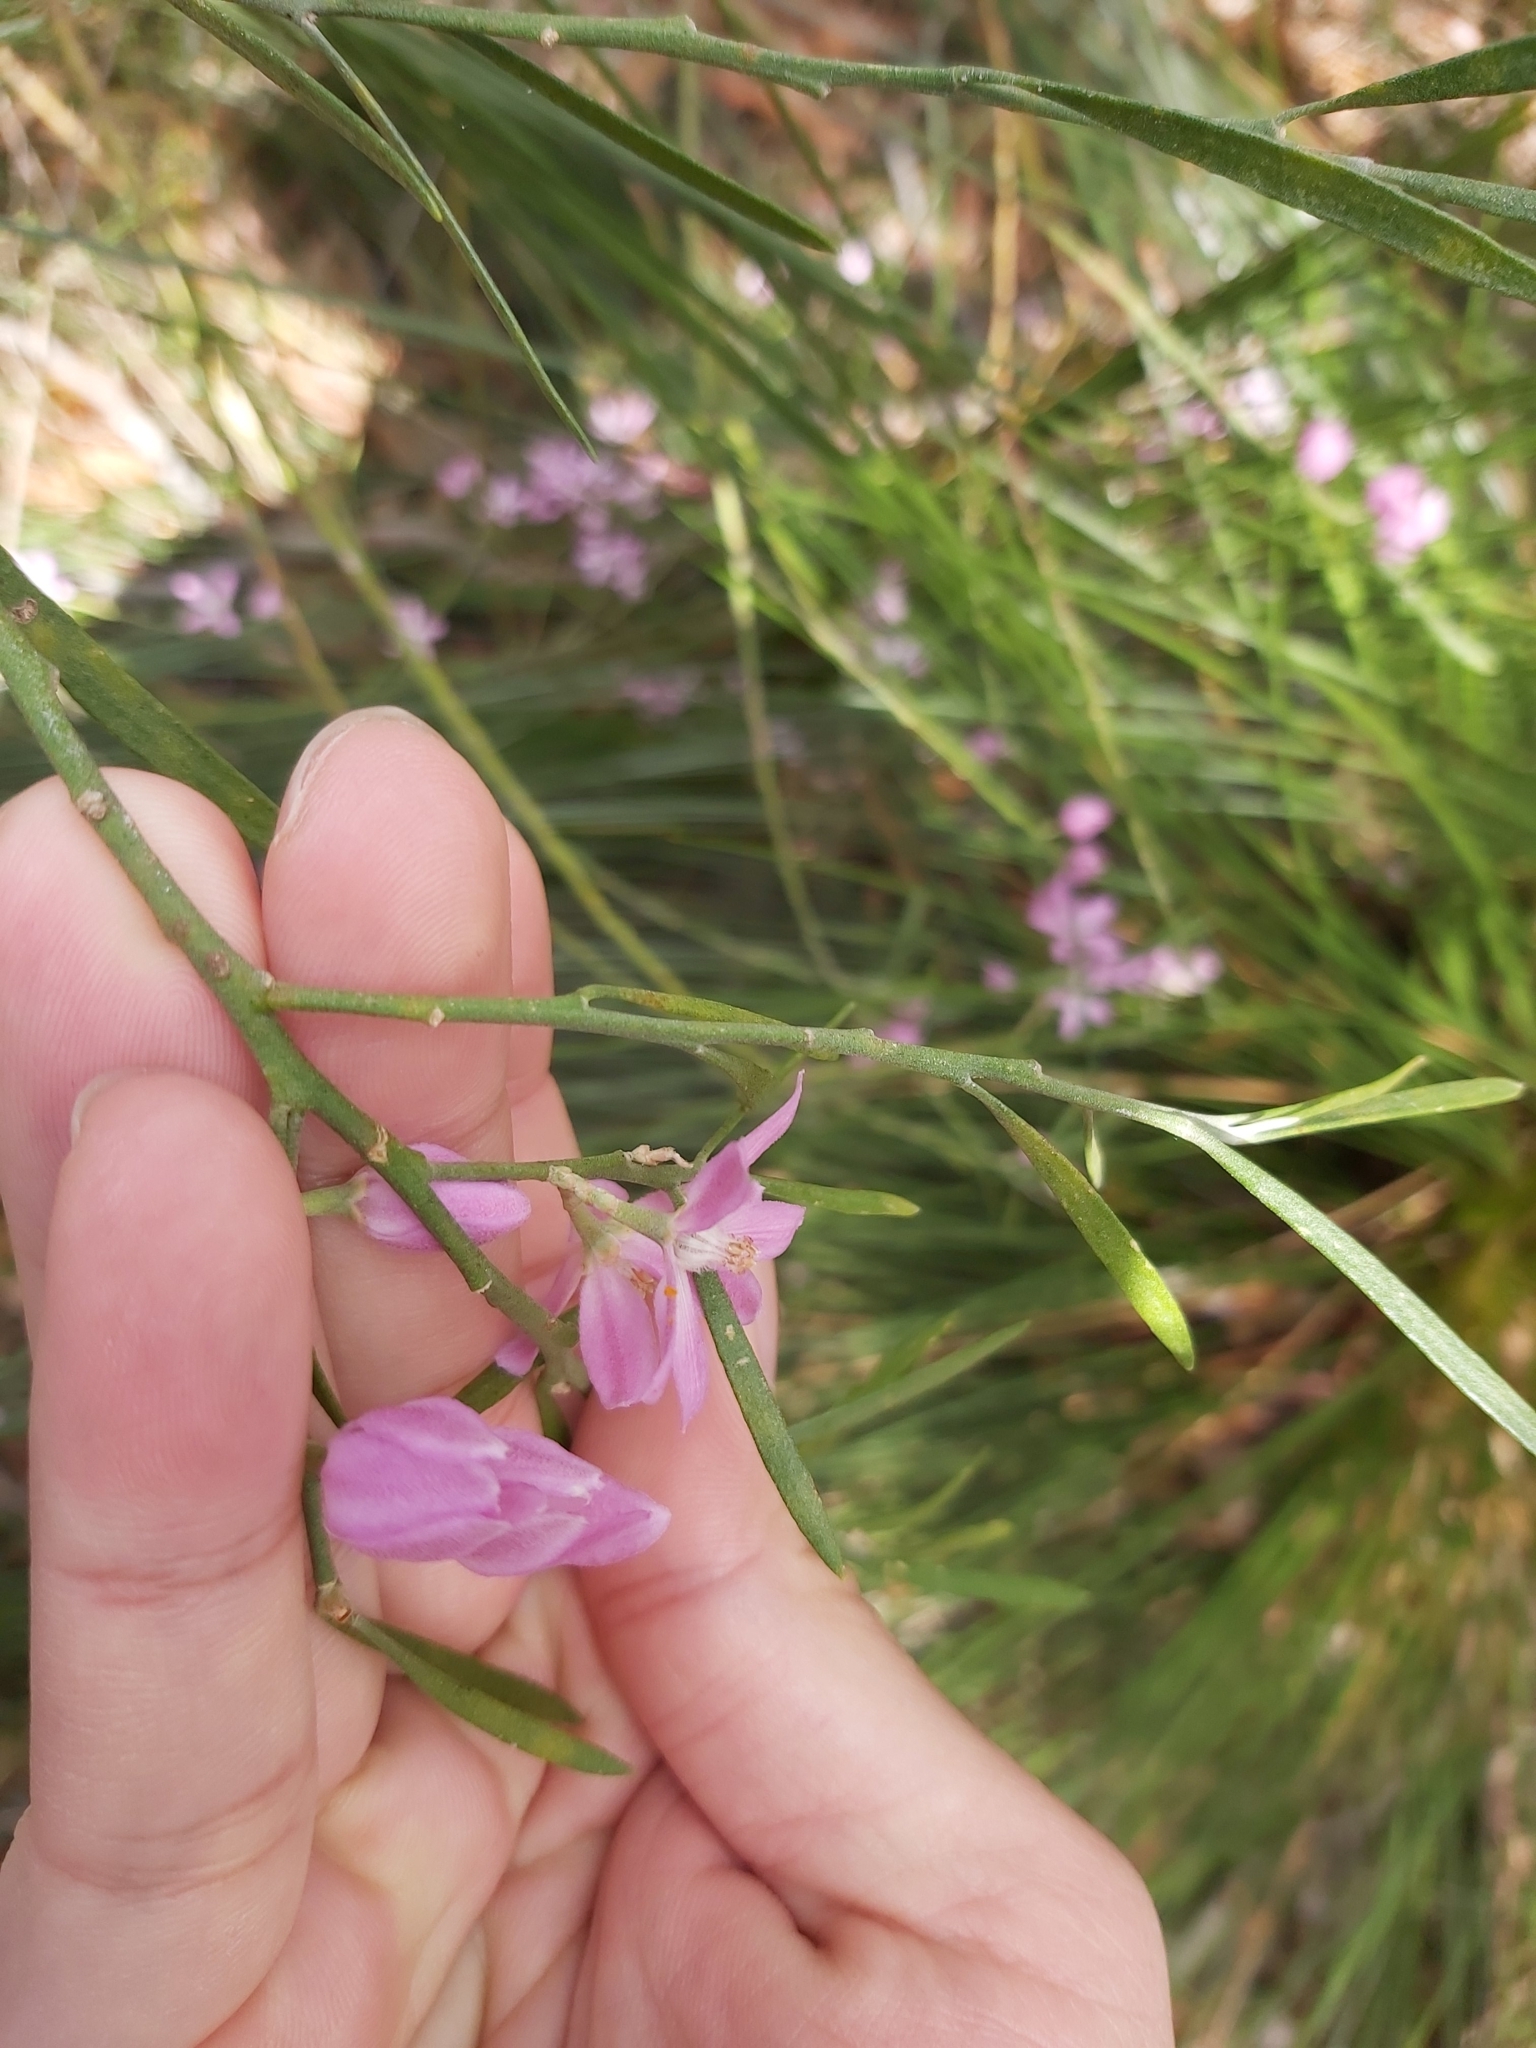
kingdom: Plantae
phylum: Tracheophyta
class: Magnoliopsida
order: Sapindales
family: Rutaceae
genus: Eriostemon
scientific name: Eriostemon australasius
